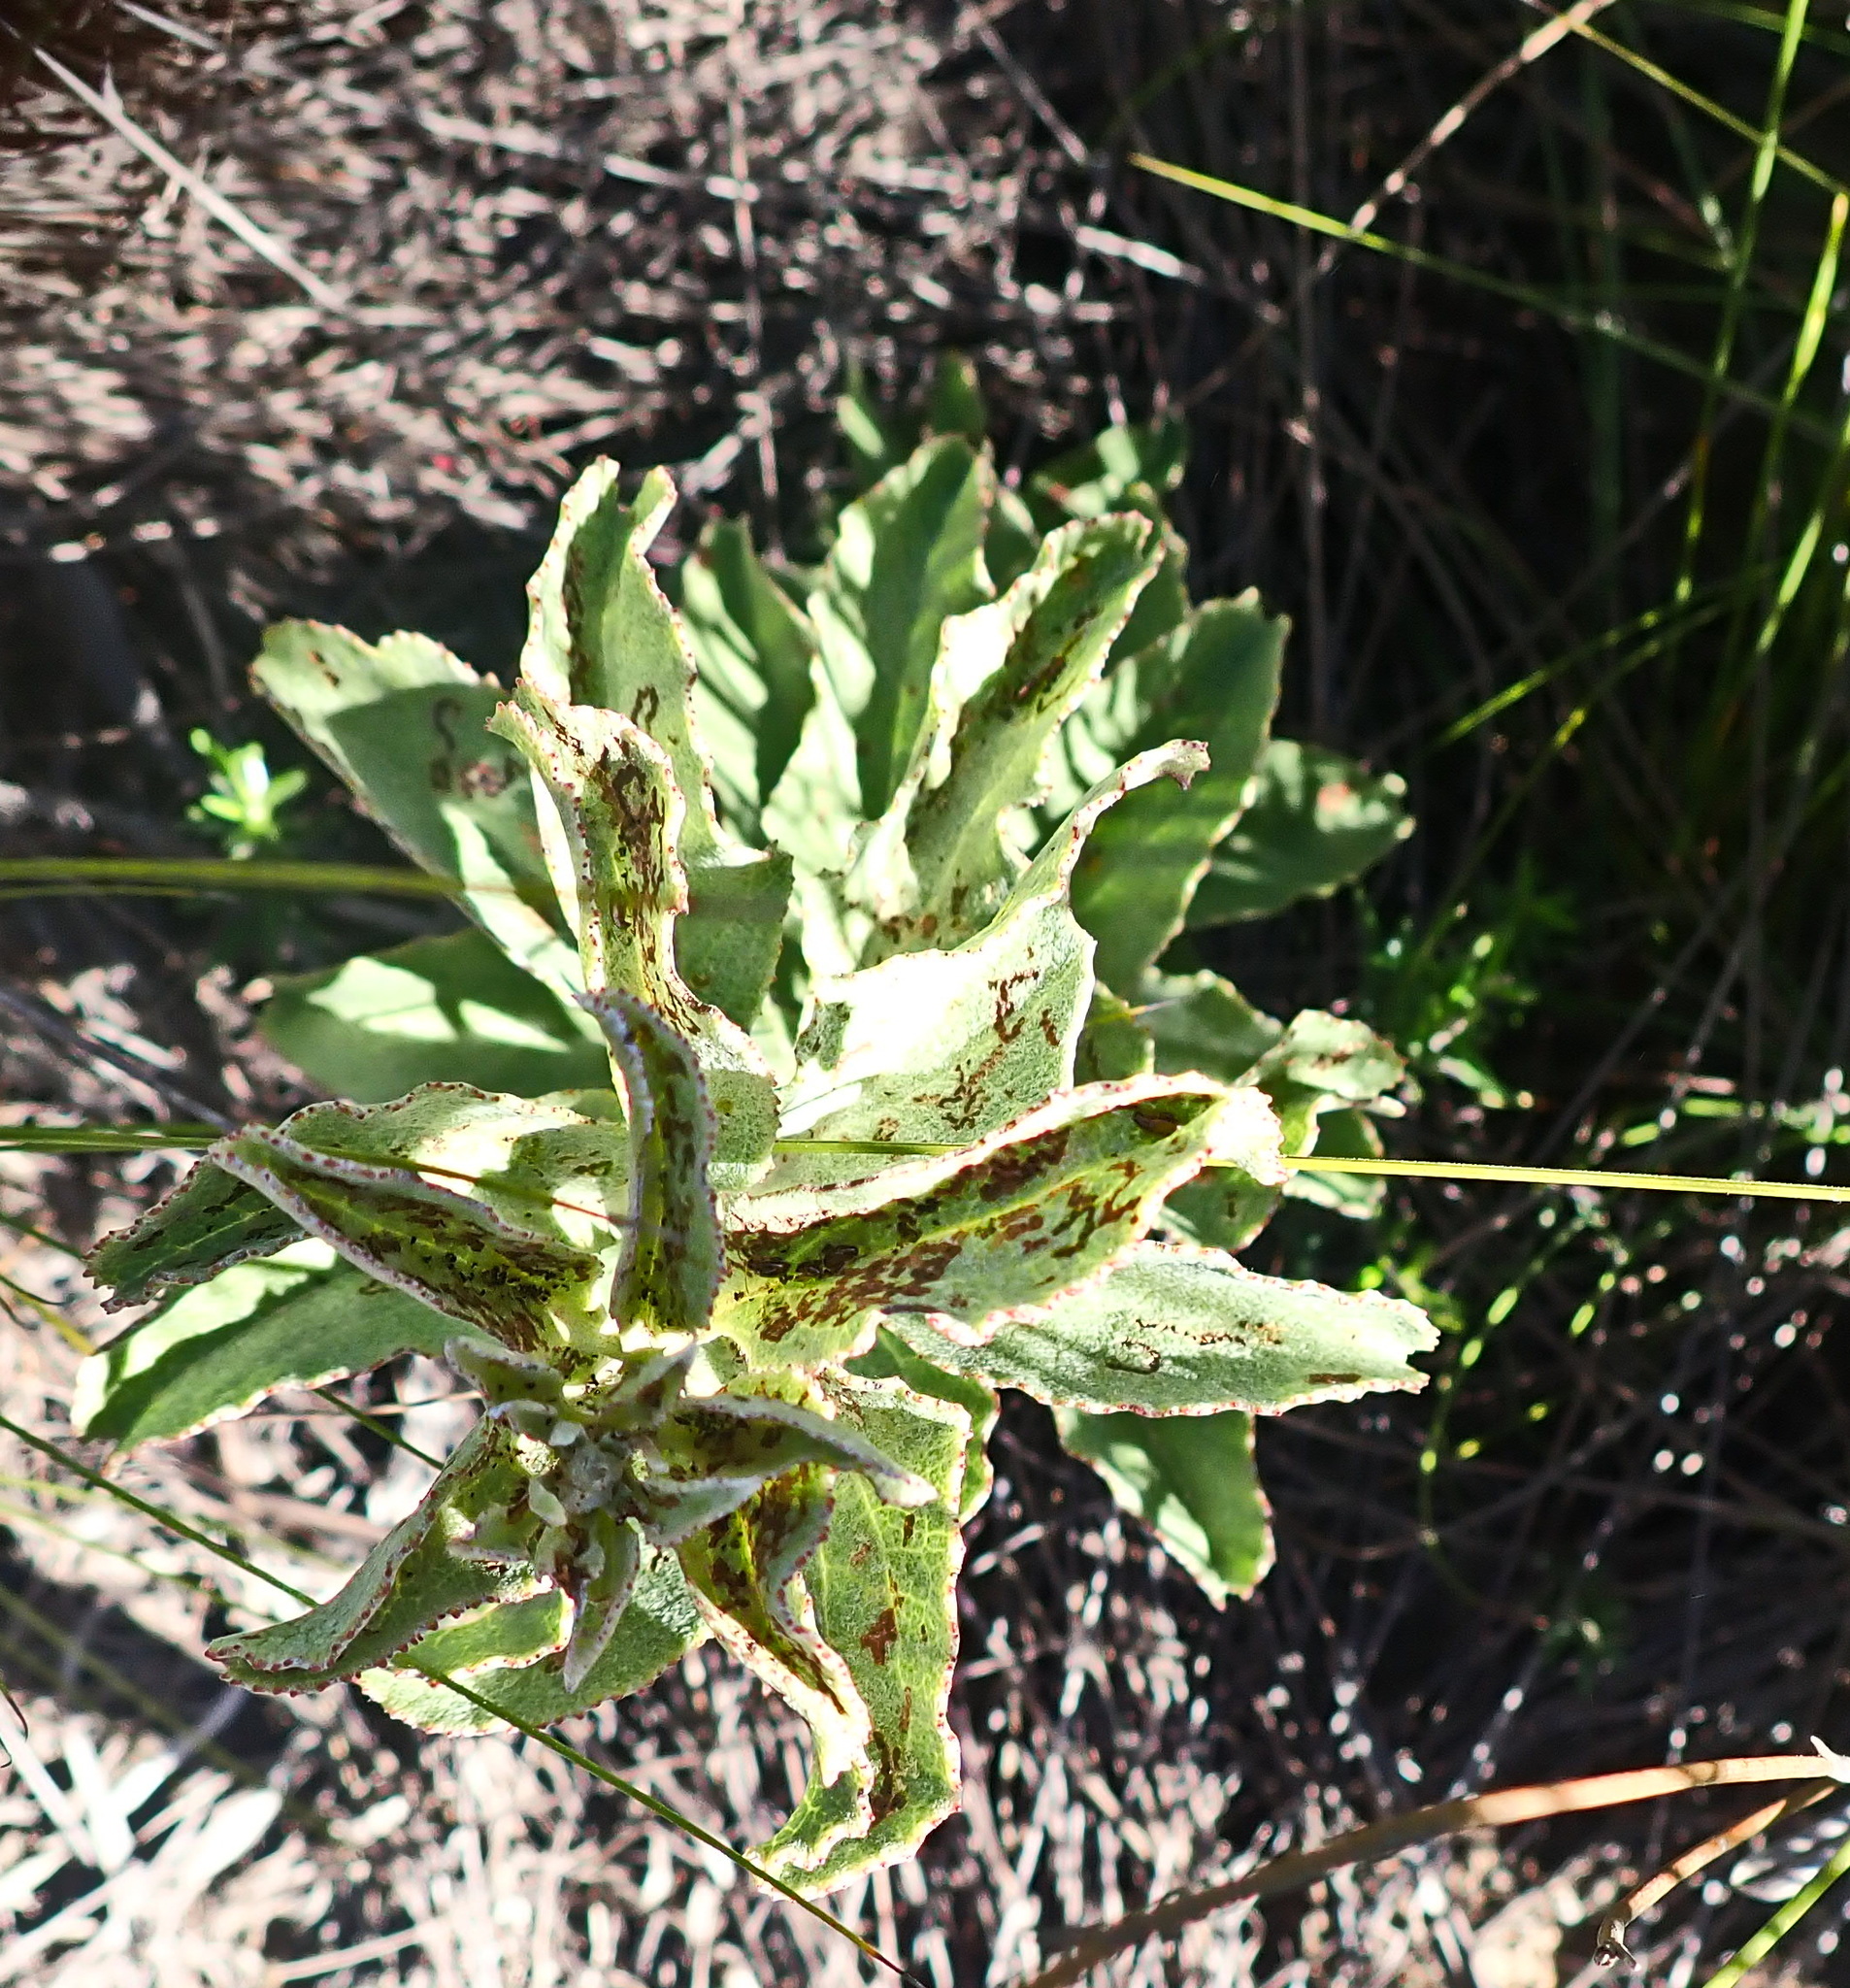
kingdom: Plantae
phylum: Tracheophyta
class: Magnoliopsida
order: Asterales
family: Asteraceae
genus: Senecio
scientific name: Senecio crenatus
